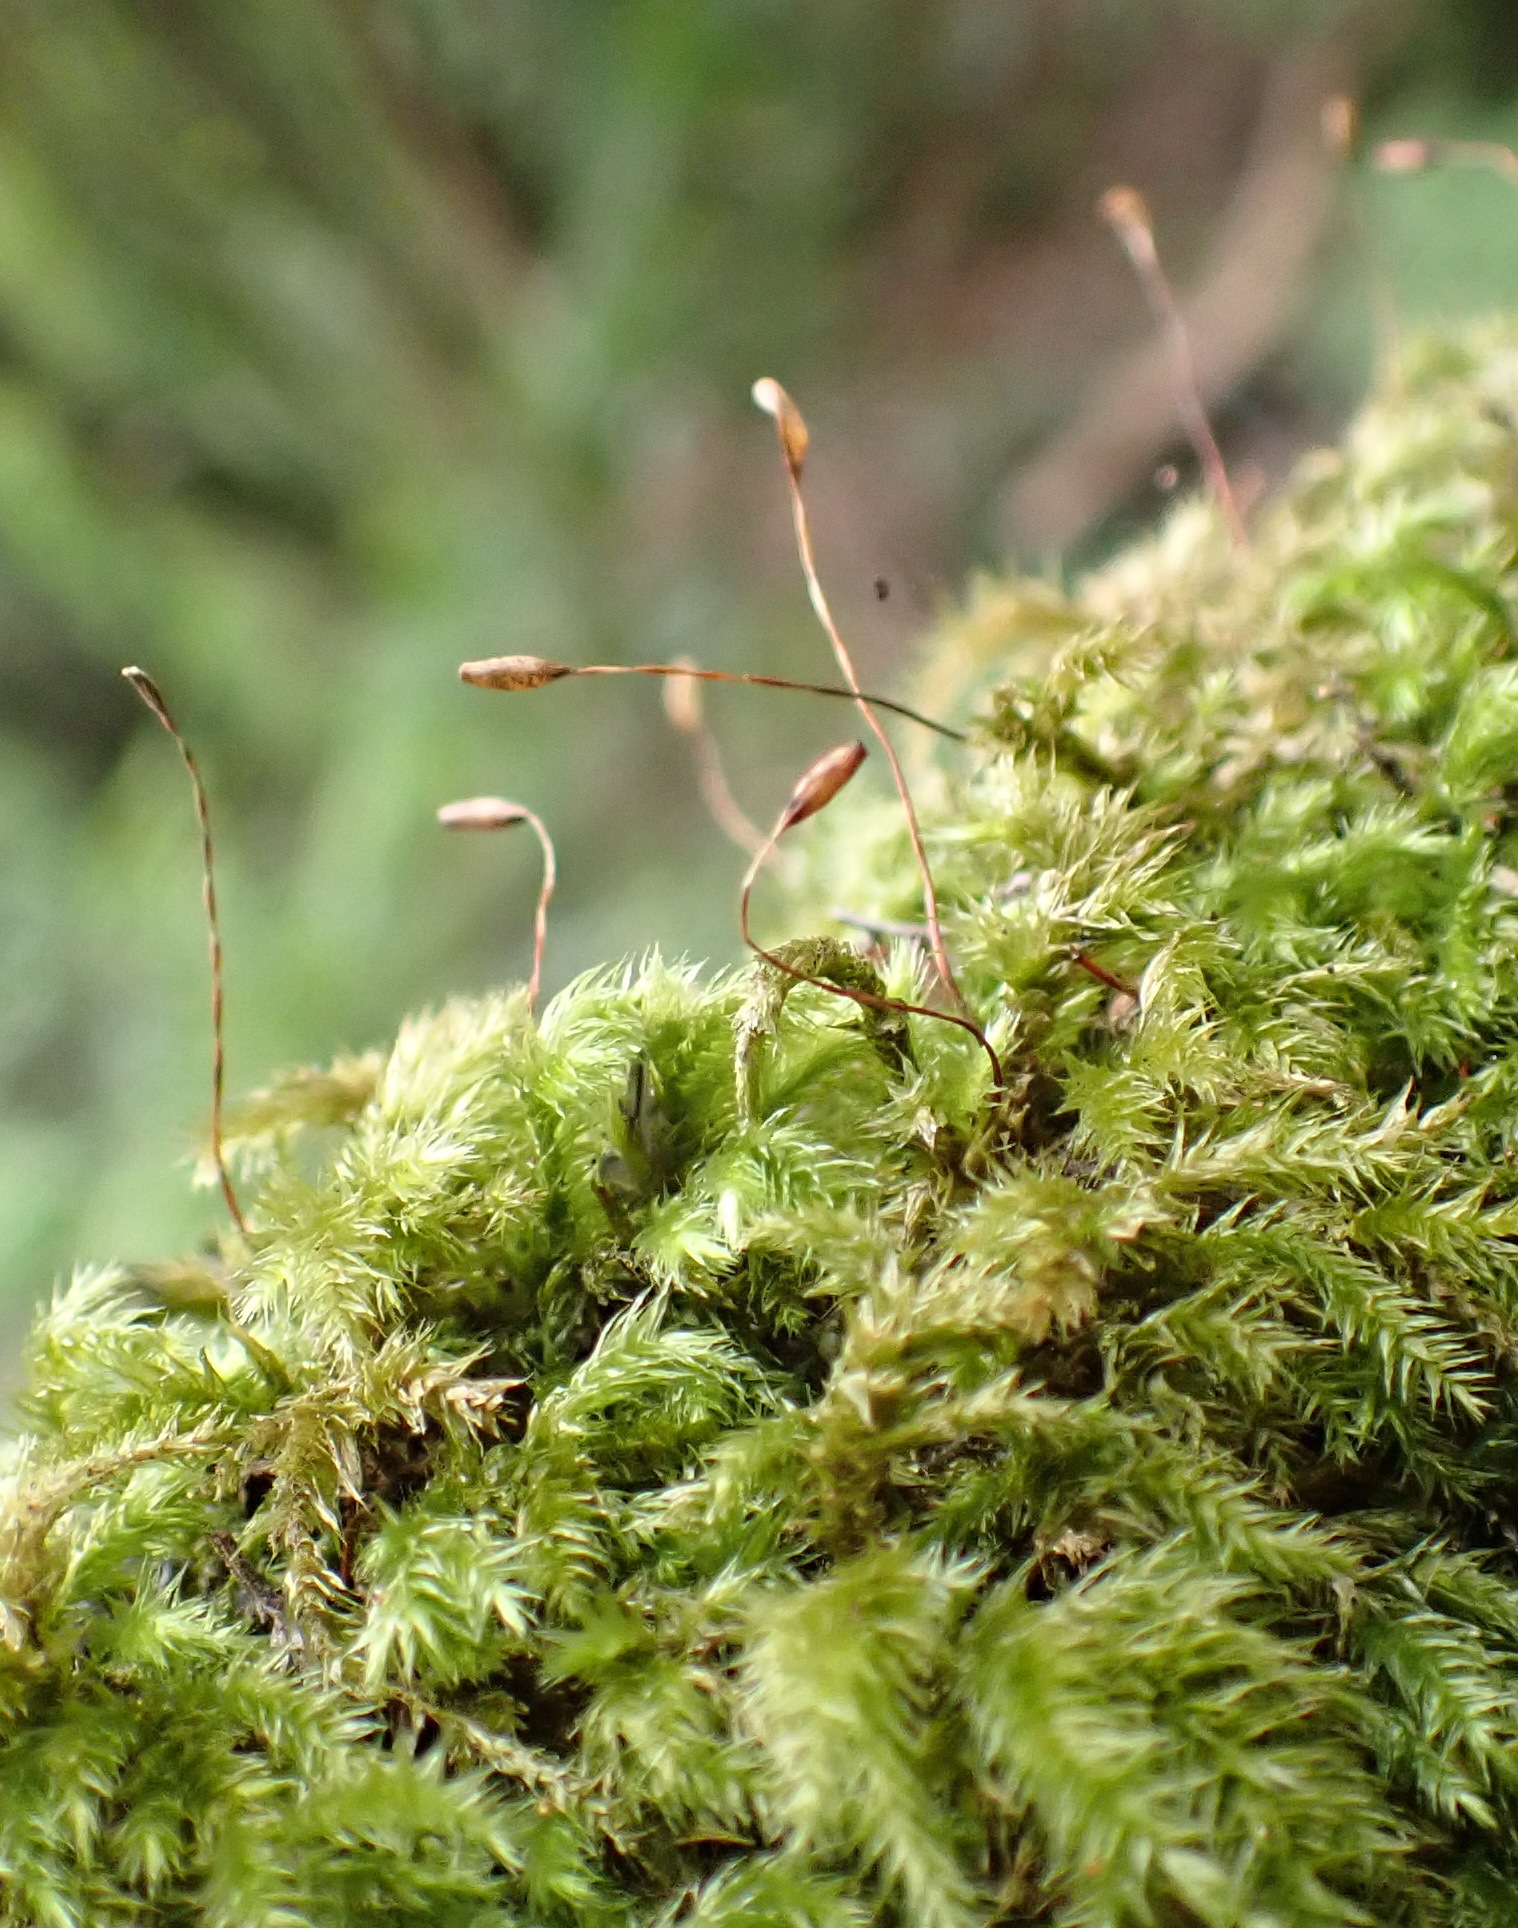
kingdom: Plantae
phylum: Bryophyta
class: Bryopsida
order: Hypnales
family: Brachytheciaceae
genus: Palamocladium
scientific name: Palamocladium leskeoides
